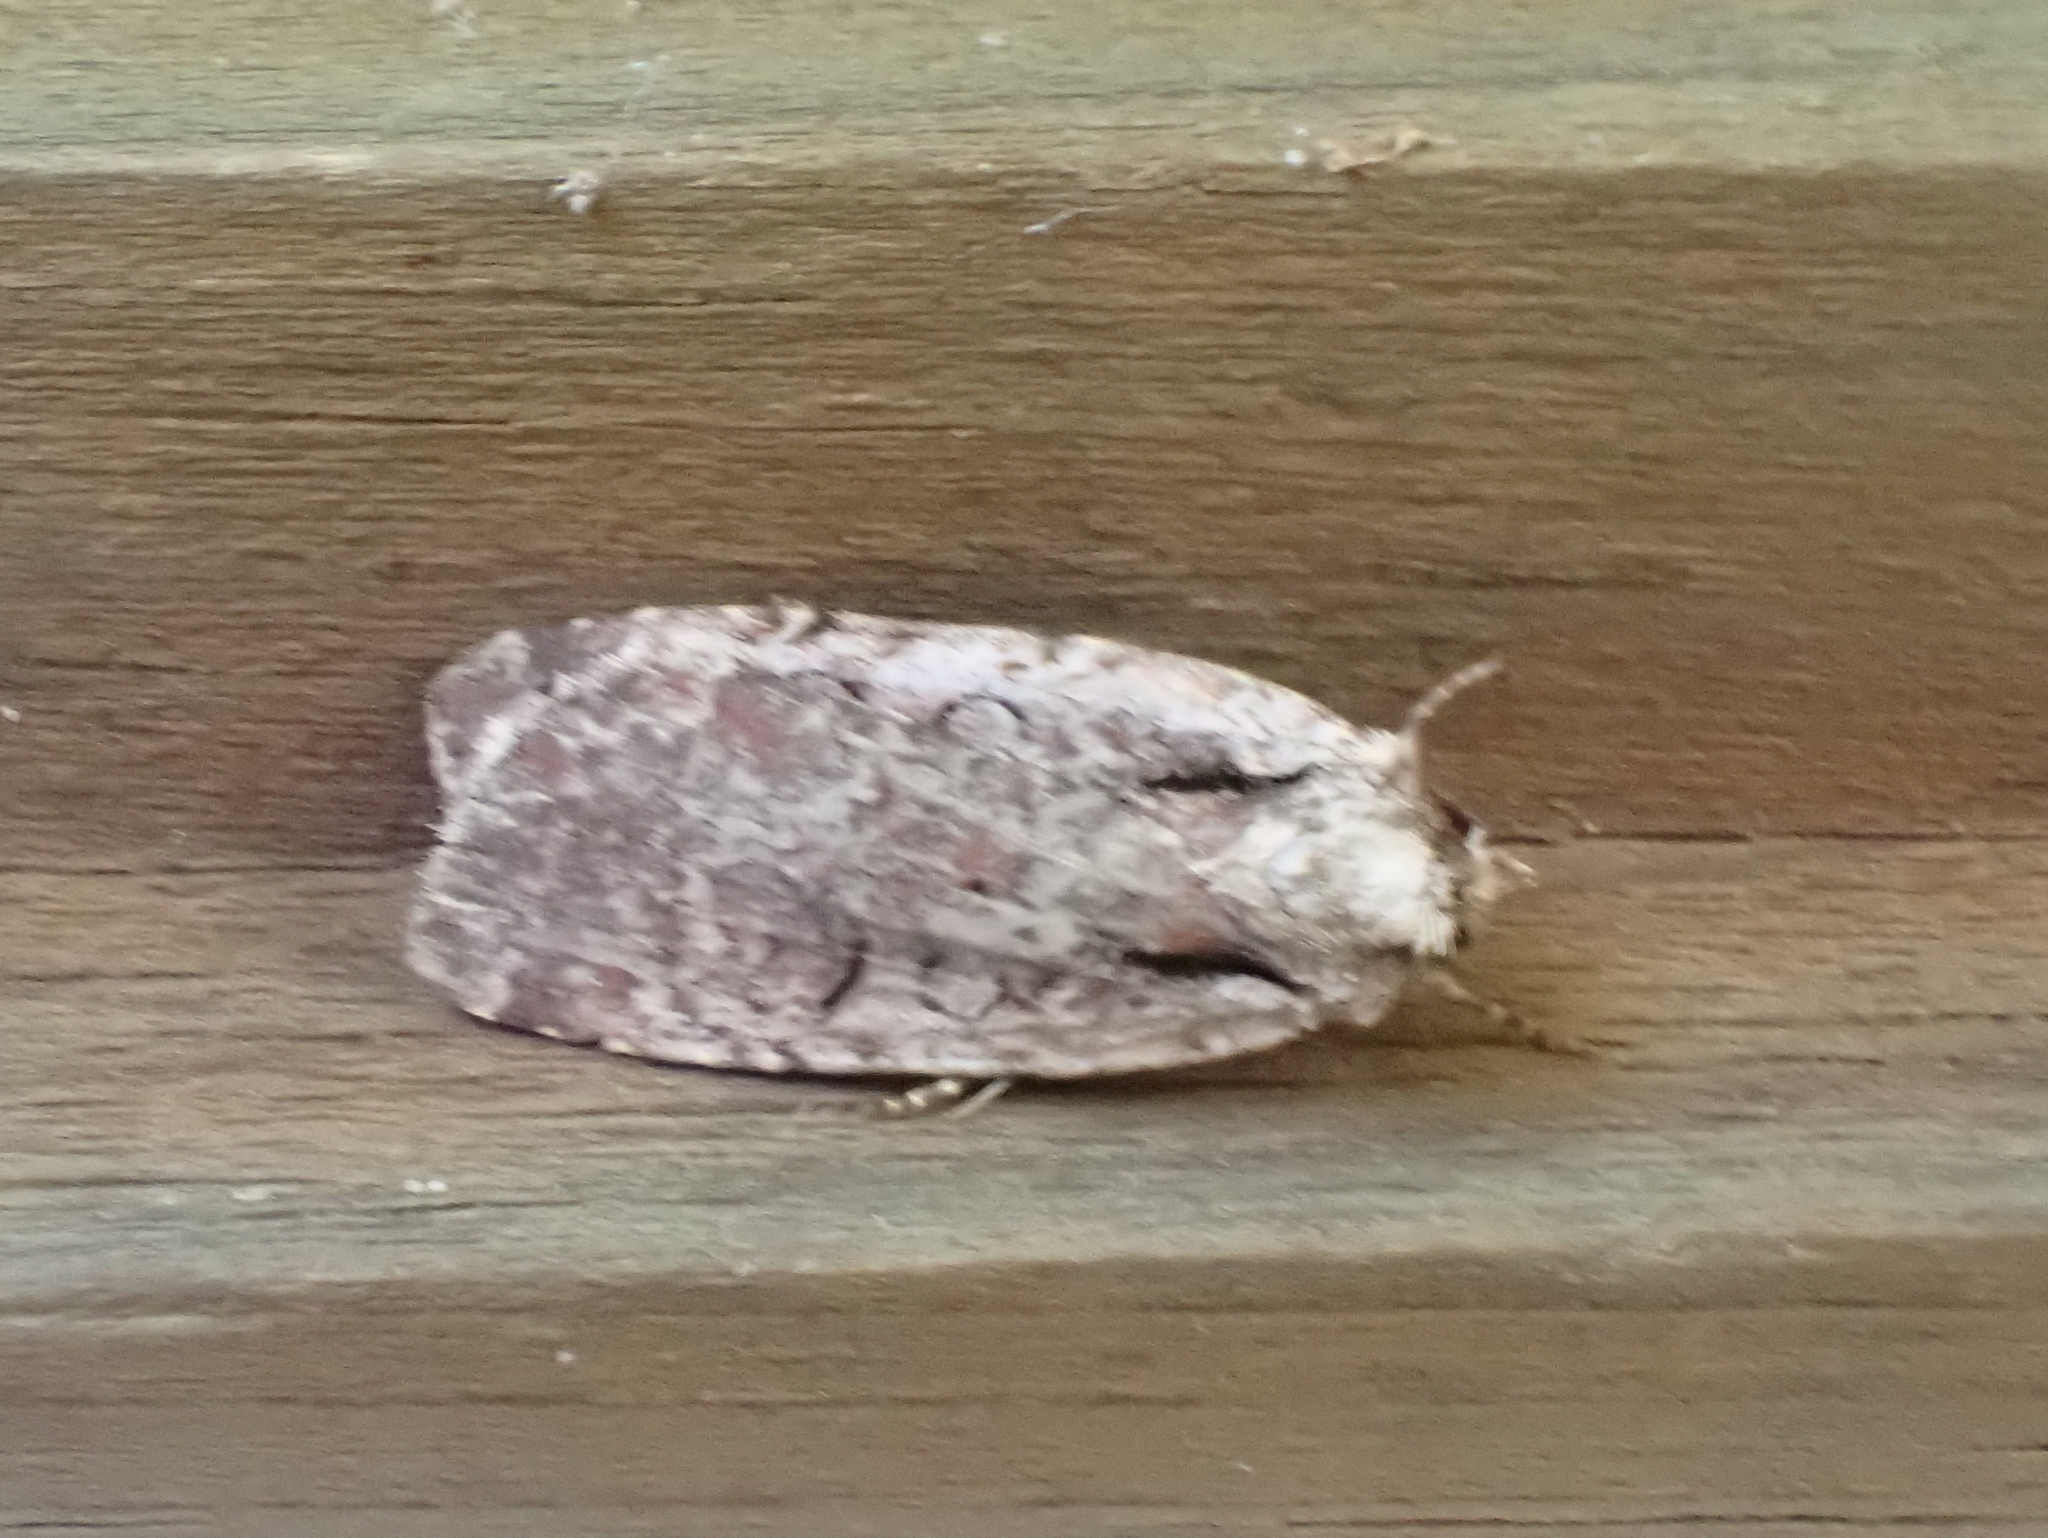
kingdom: Animalia
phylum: Arthropoda
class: Insecta
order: Lepidoptera
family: Noctuidae
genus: Eueretagrotis
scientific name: Eueretagrotis attentus
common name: Attentive dart
